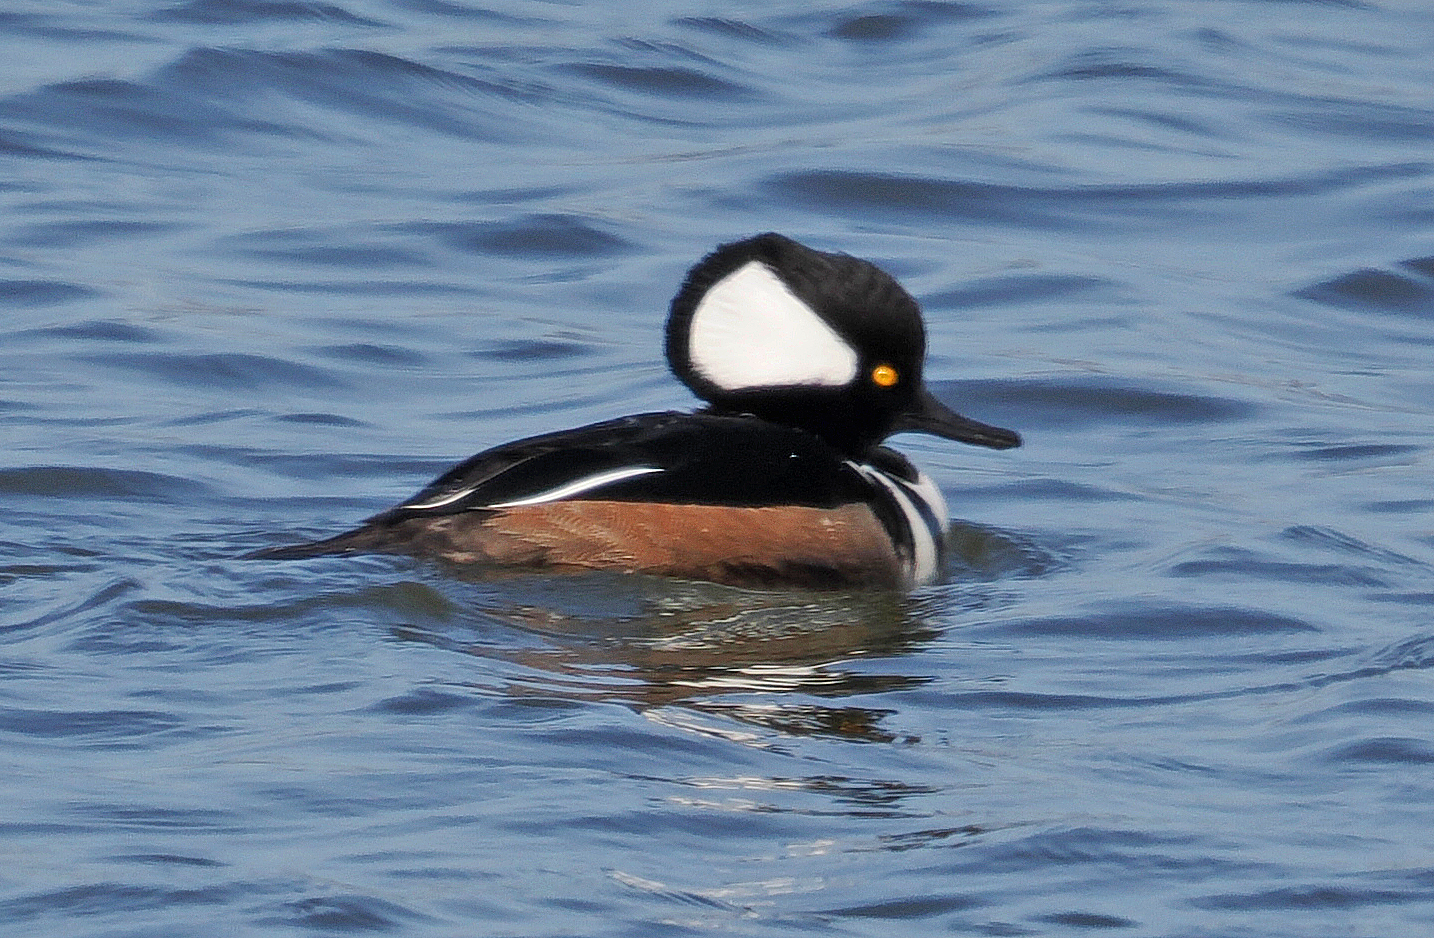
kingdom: Animalia
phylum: Chordata
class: Aves
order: Anseriformes
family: Anatidae
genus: Lophodytes
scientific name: Lophodytes cucullatus
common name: Hooded merganser
